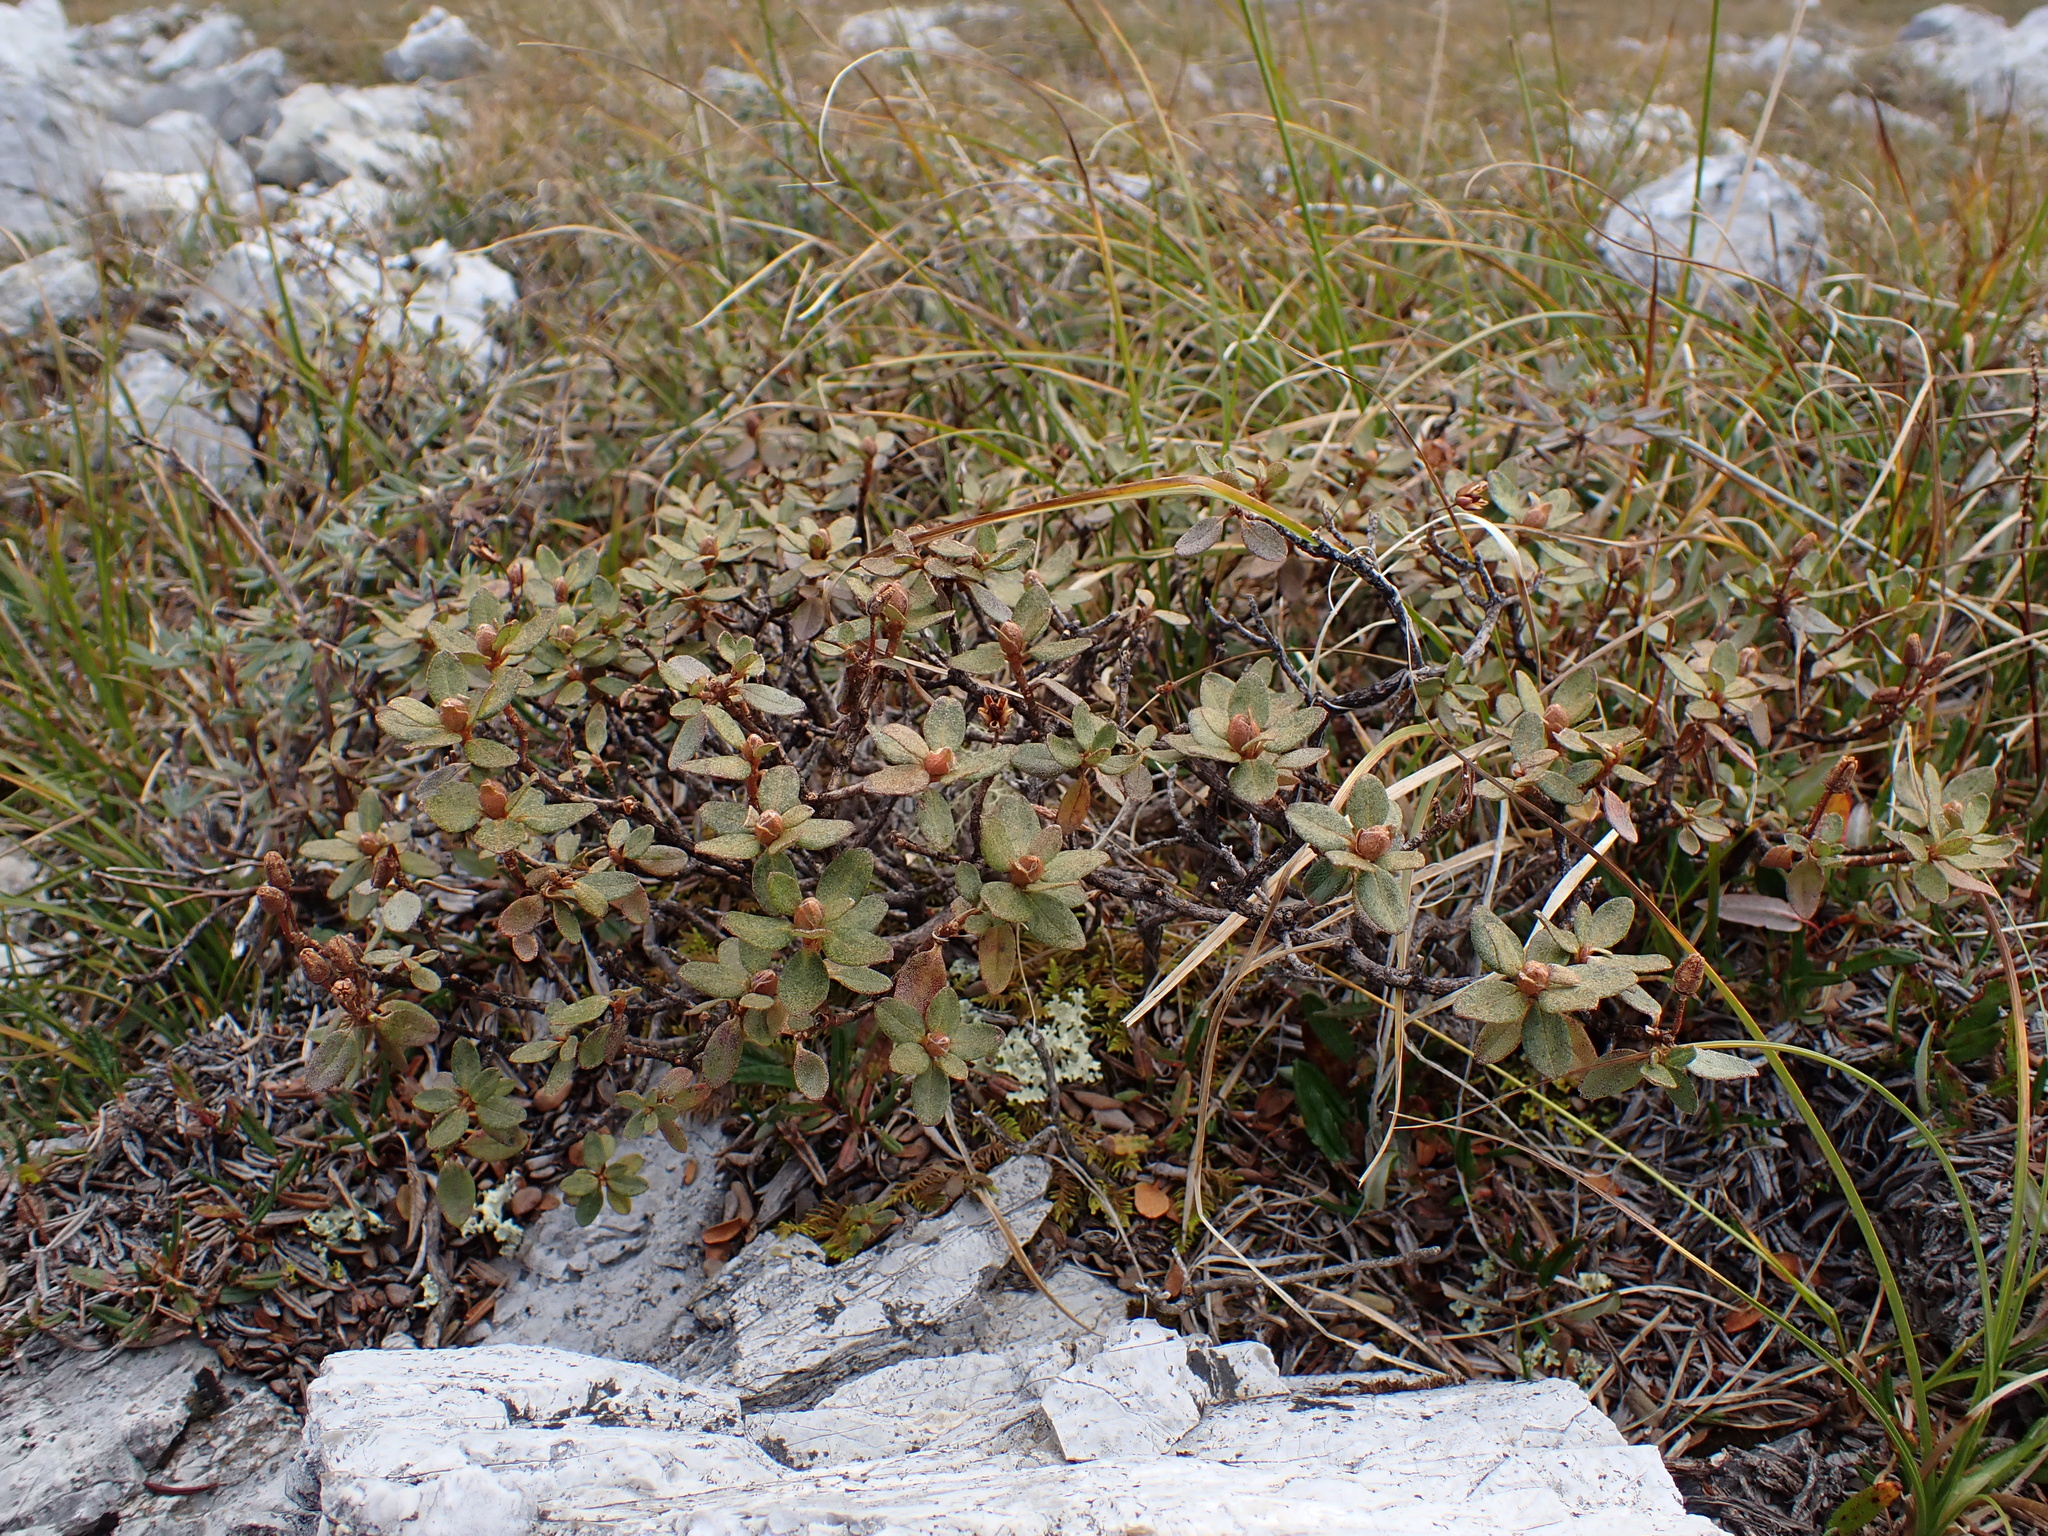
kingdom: Plantae
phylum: Tracheophyta
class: Magnoliopsida
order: Ericales
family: Ericaceae
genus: Rhododendron
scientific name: Rhododendron lapponicum
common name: Lapland rhododendron
